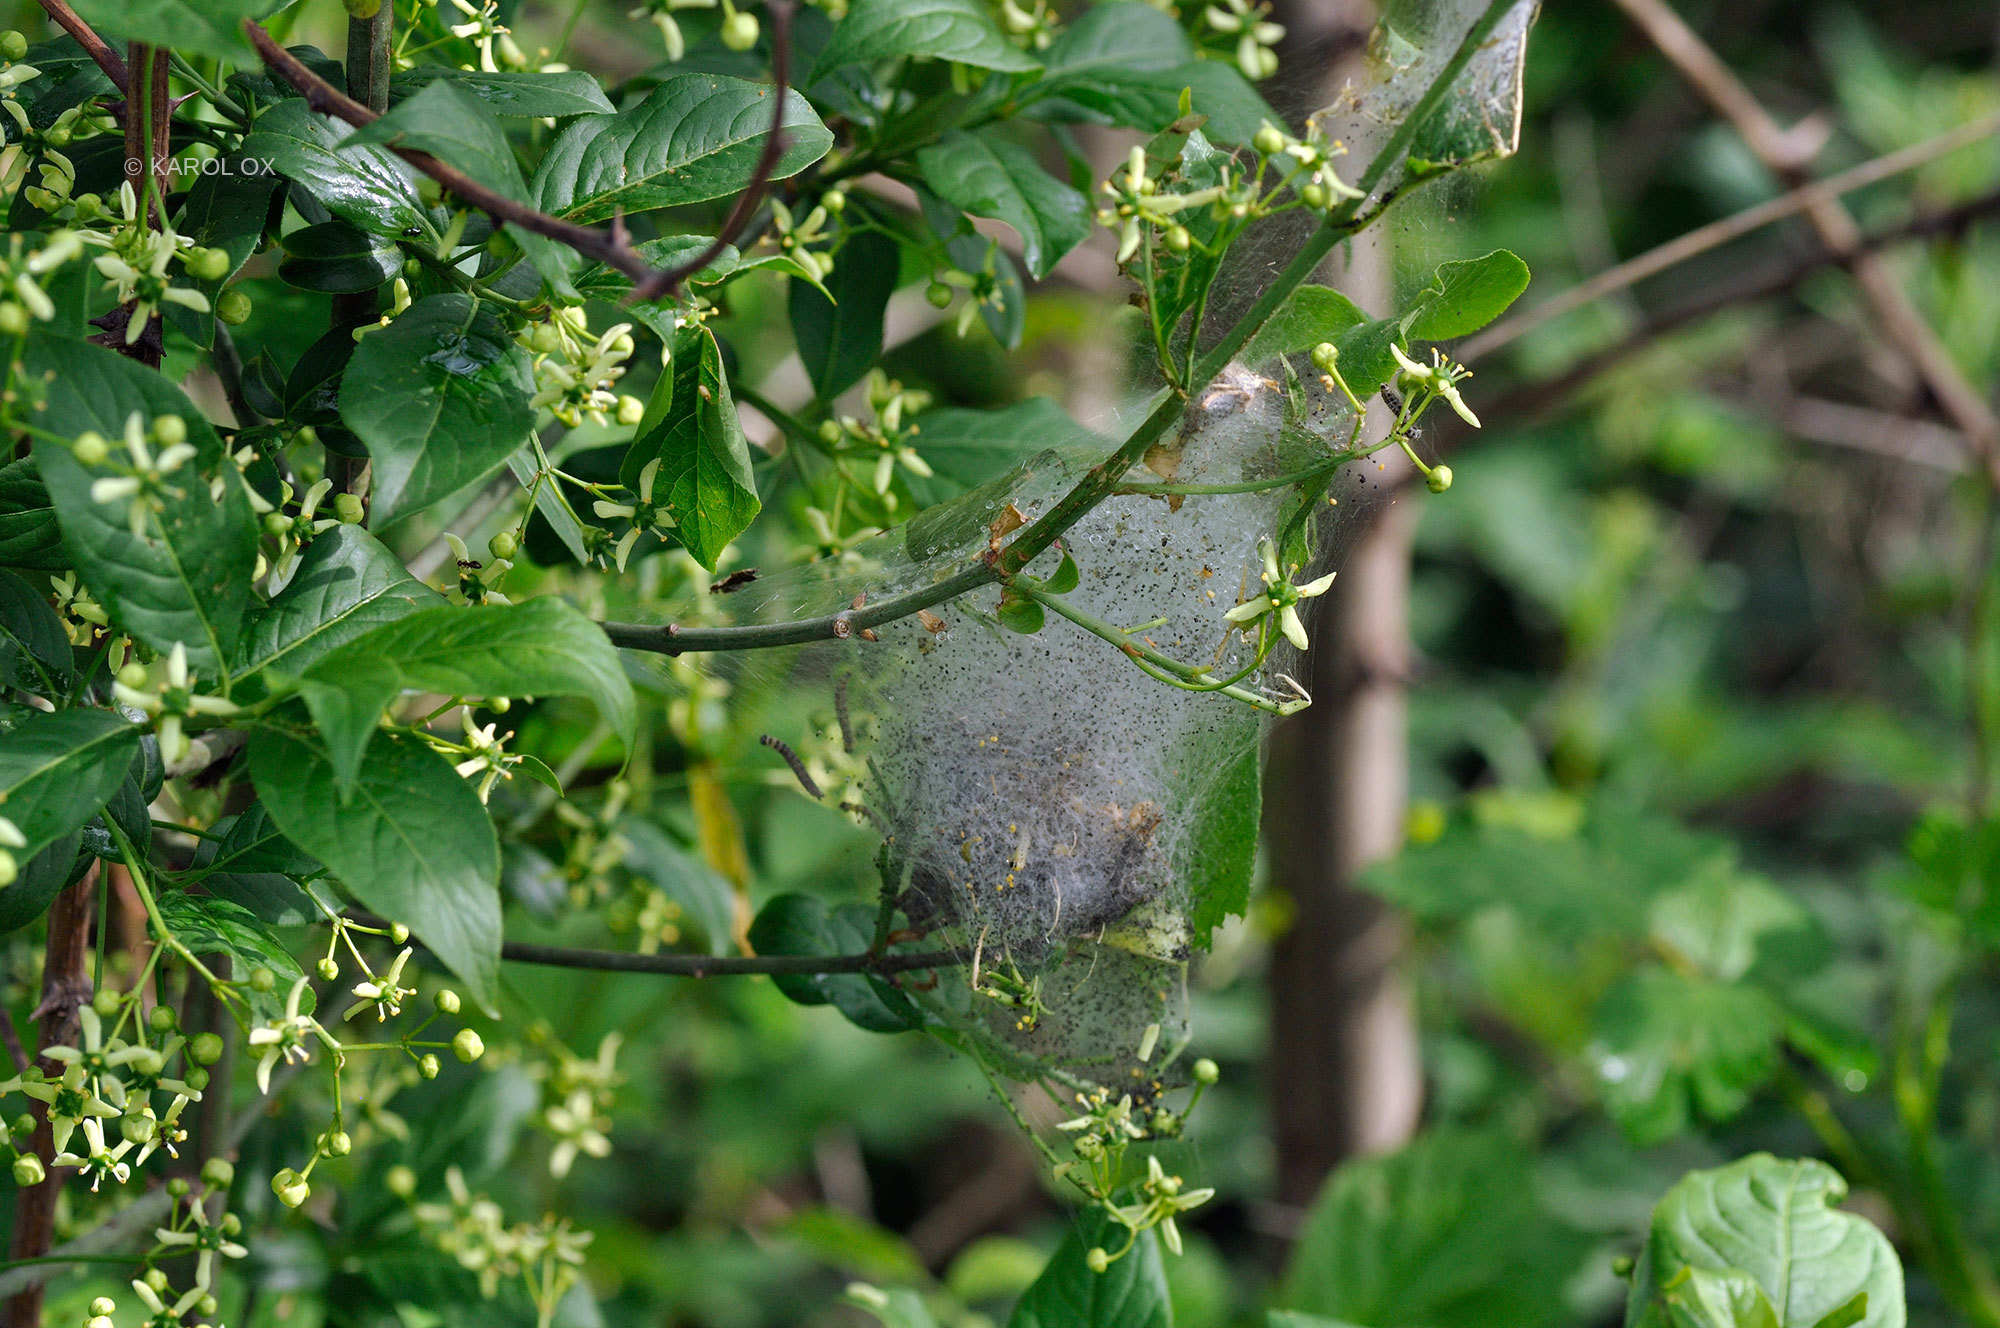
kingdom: Plantae
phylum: Tracheophyta
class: Magnoliopsida
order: Celastrales
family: Celastraceae
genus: Euonymus
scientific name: Euonymus europaeus
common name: Spindle
